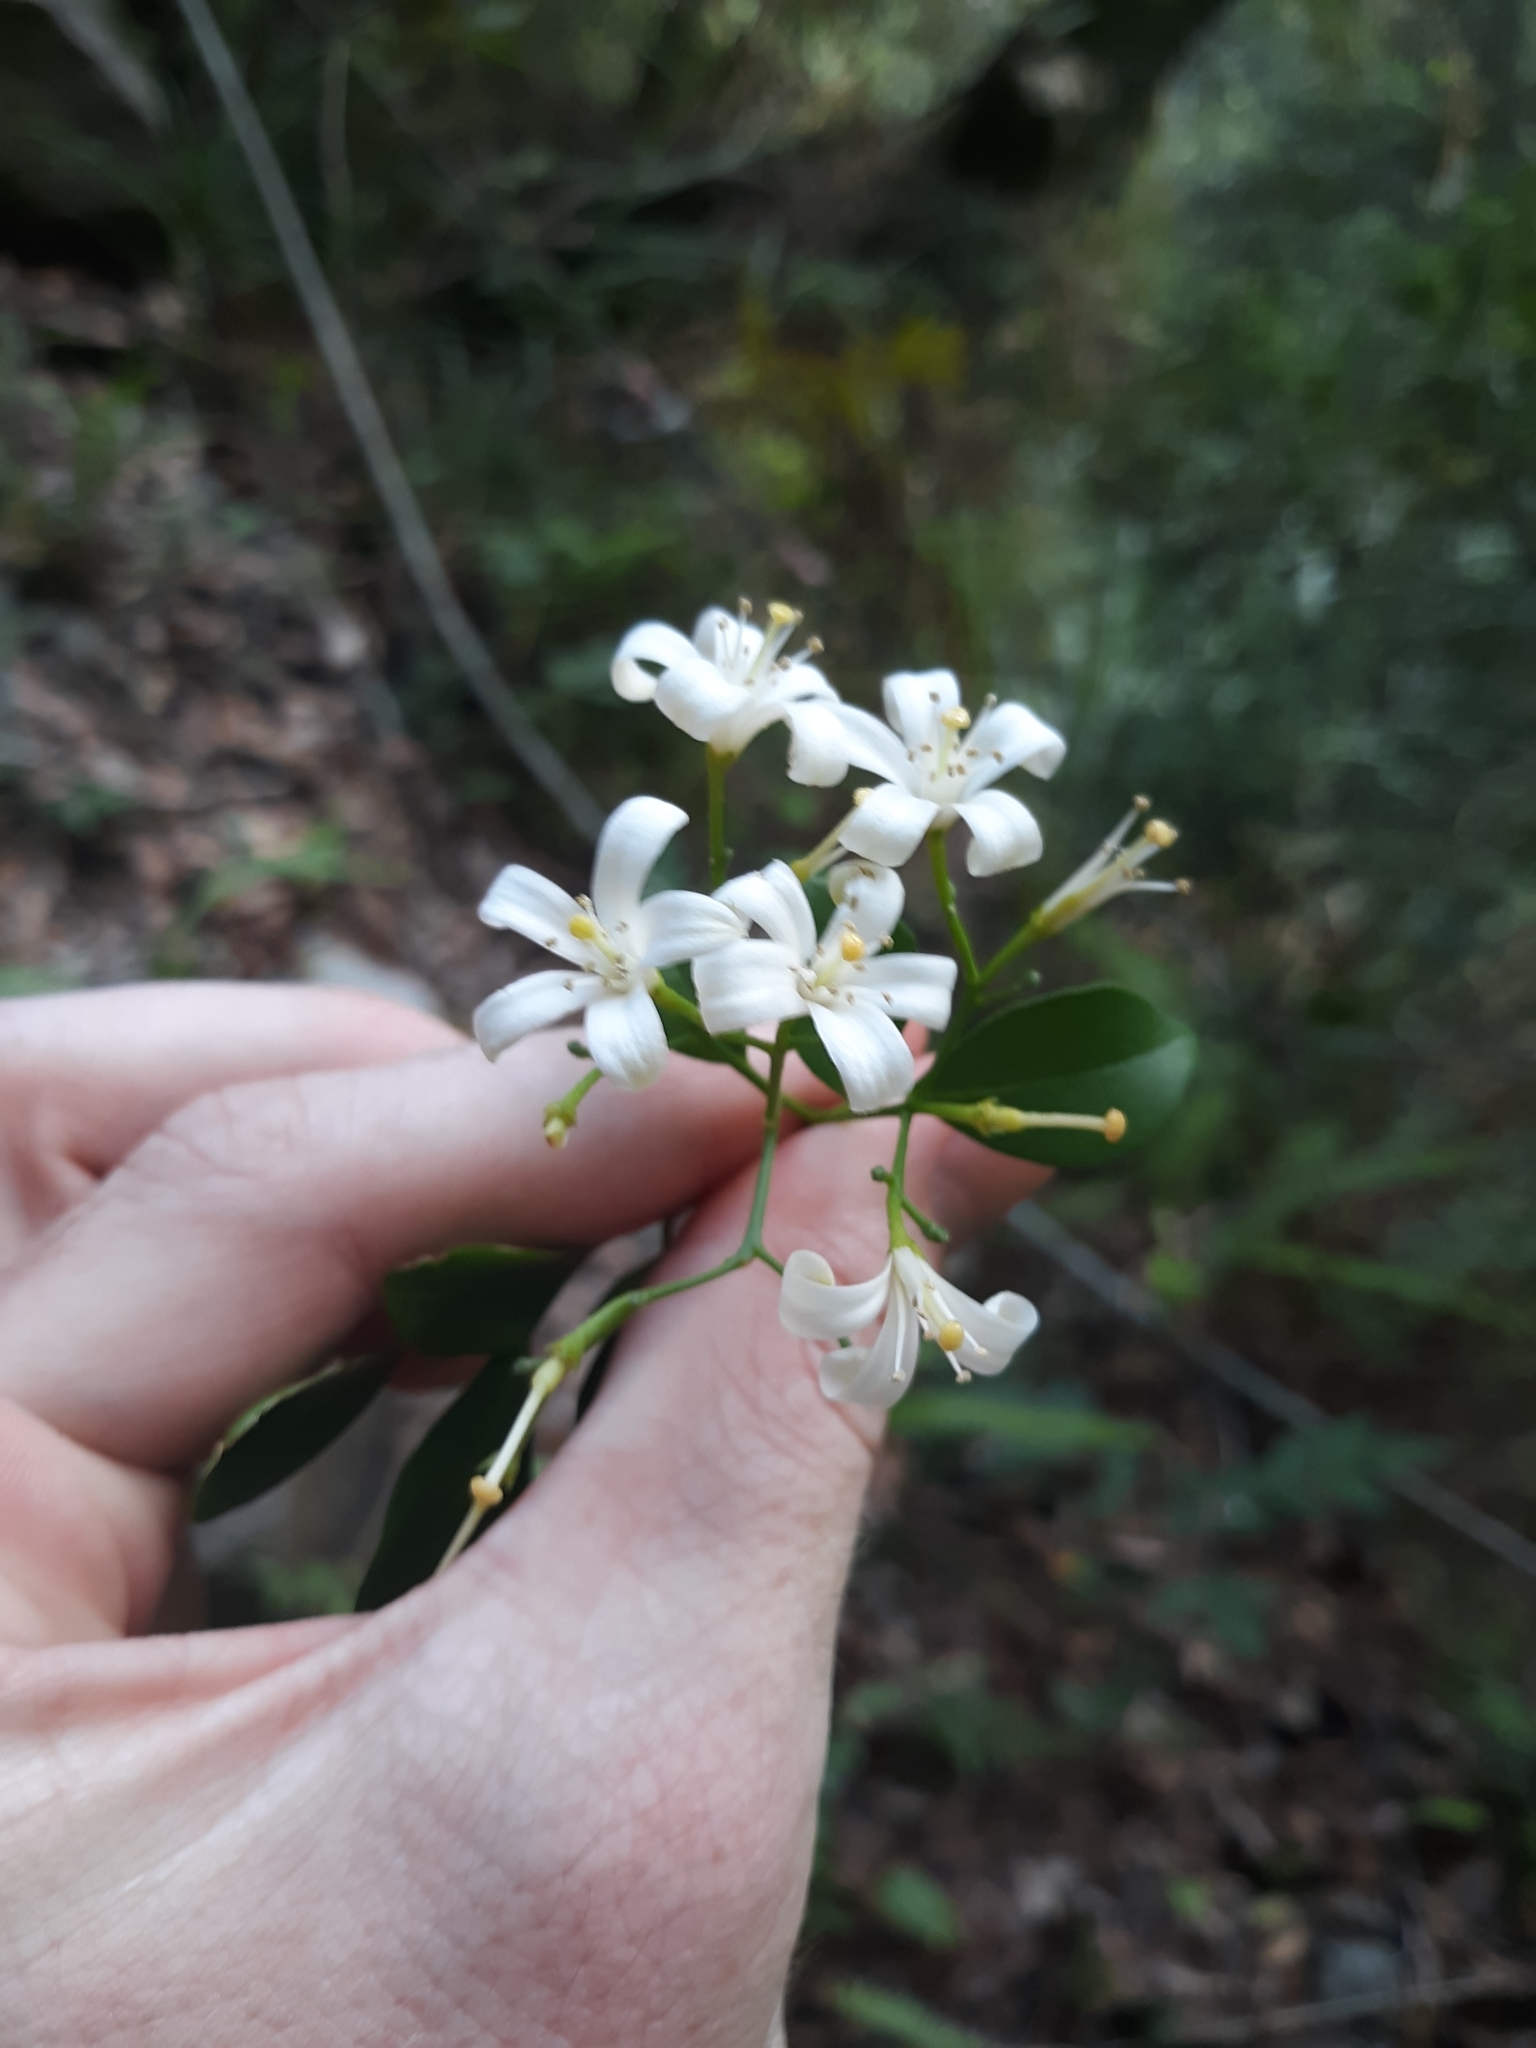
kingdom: Plantae
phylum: Tracheophyta
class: Magnoliopsida
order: Sapindales
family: Rutaceae
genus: Murraya
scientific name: Murraya paniculata
